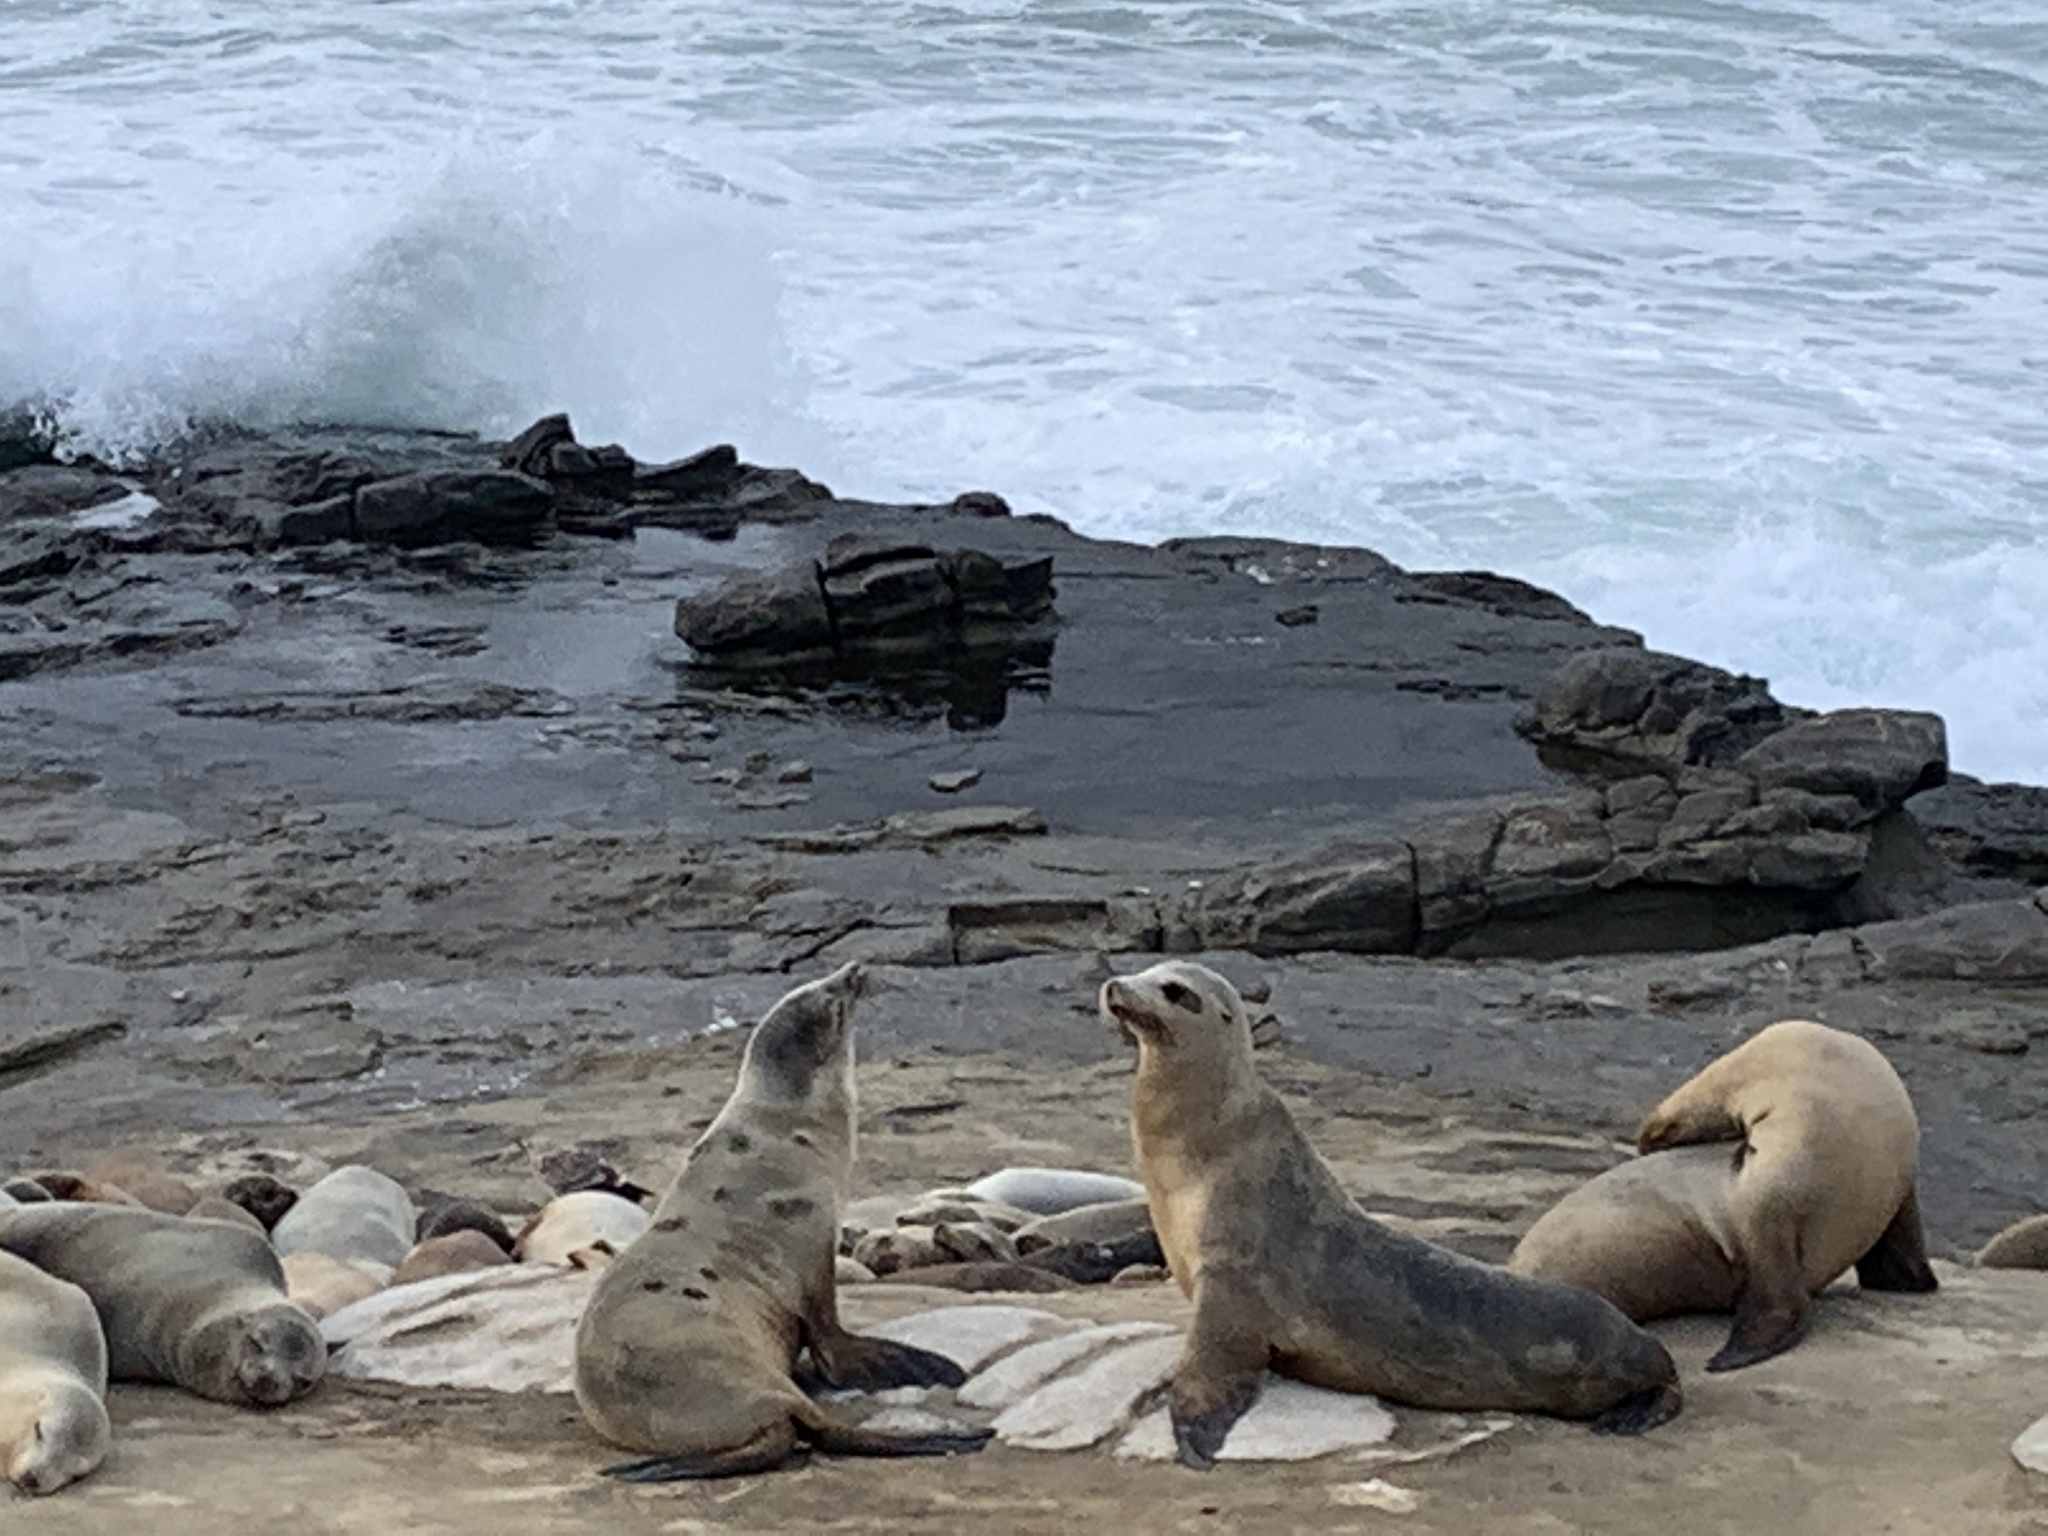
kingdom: Animalia
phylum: Chordata
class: Mammalia
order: Carnivora
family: Otariidae
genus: Zalophus
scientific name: Zalophus californianus
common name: California sea lion
